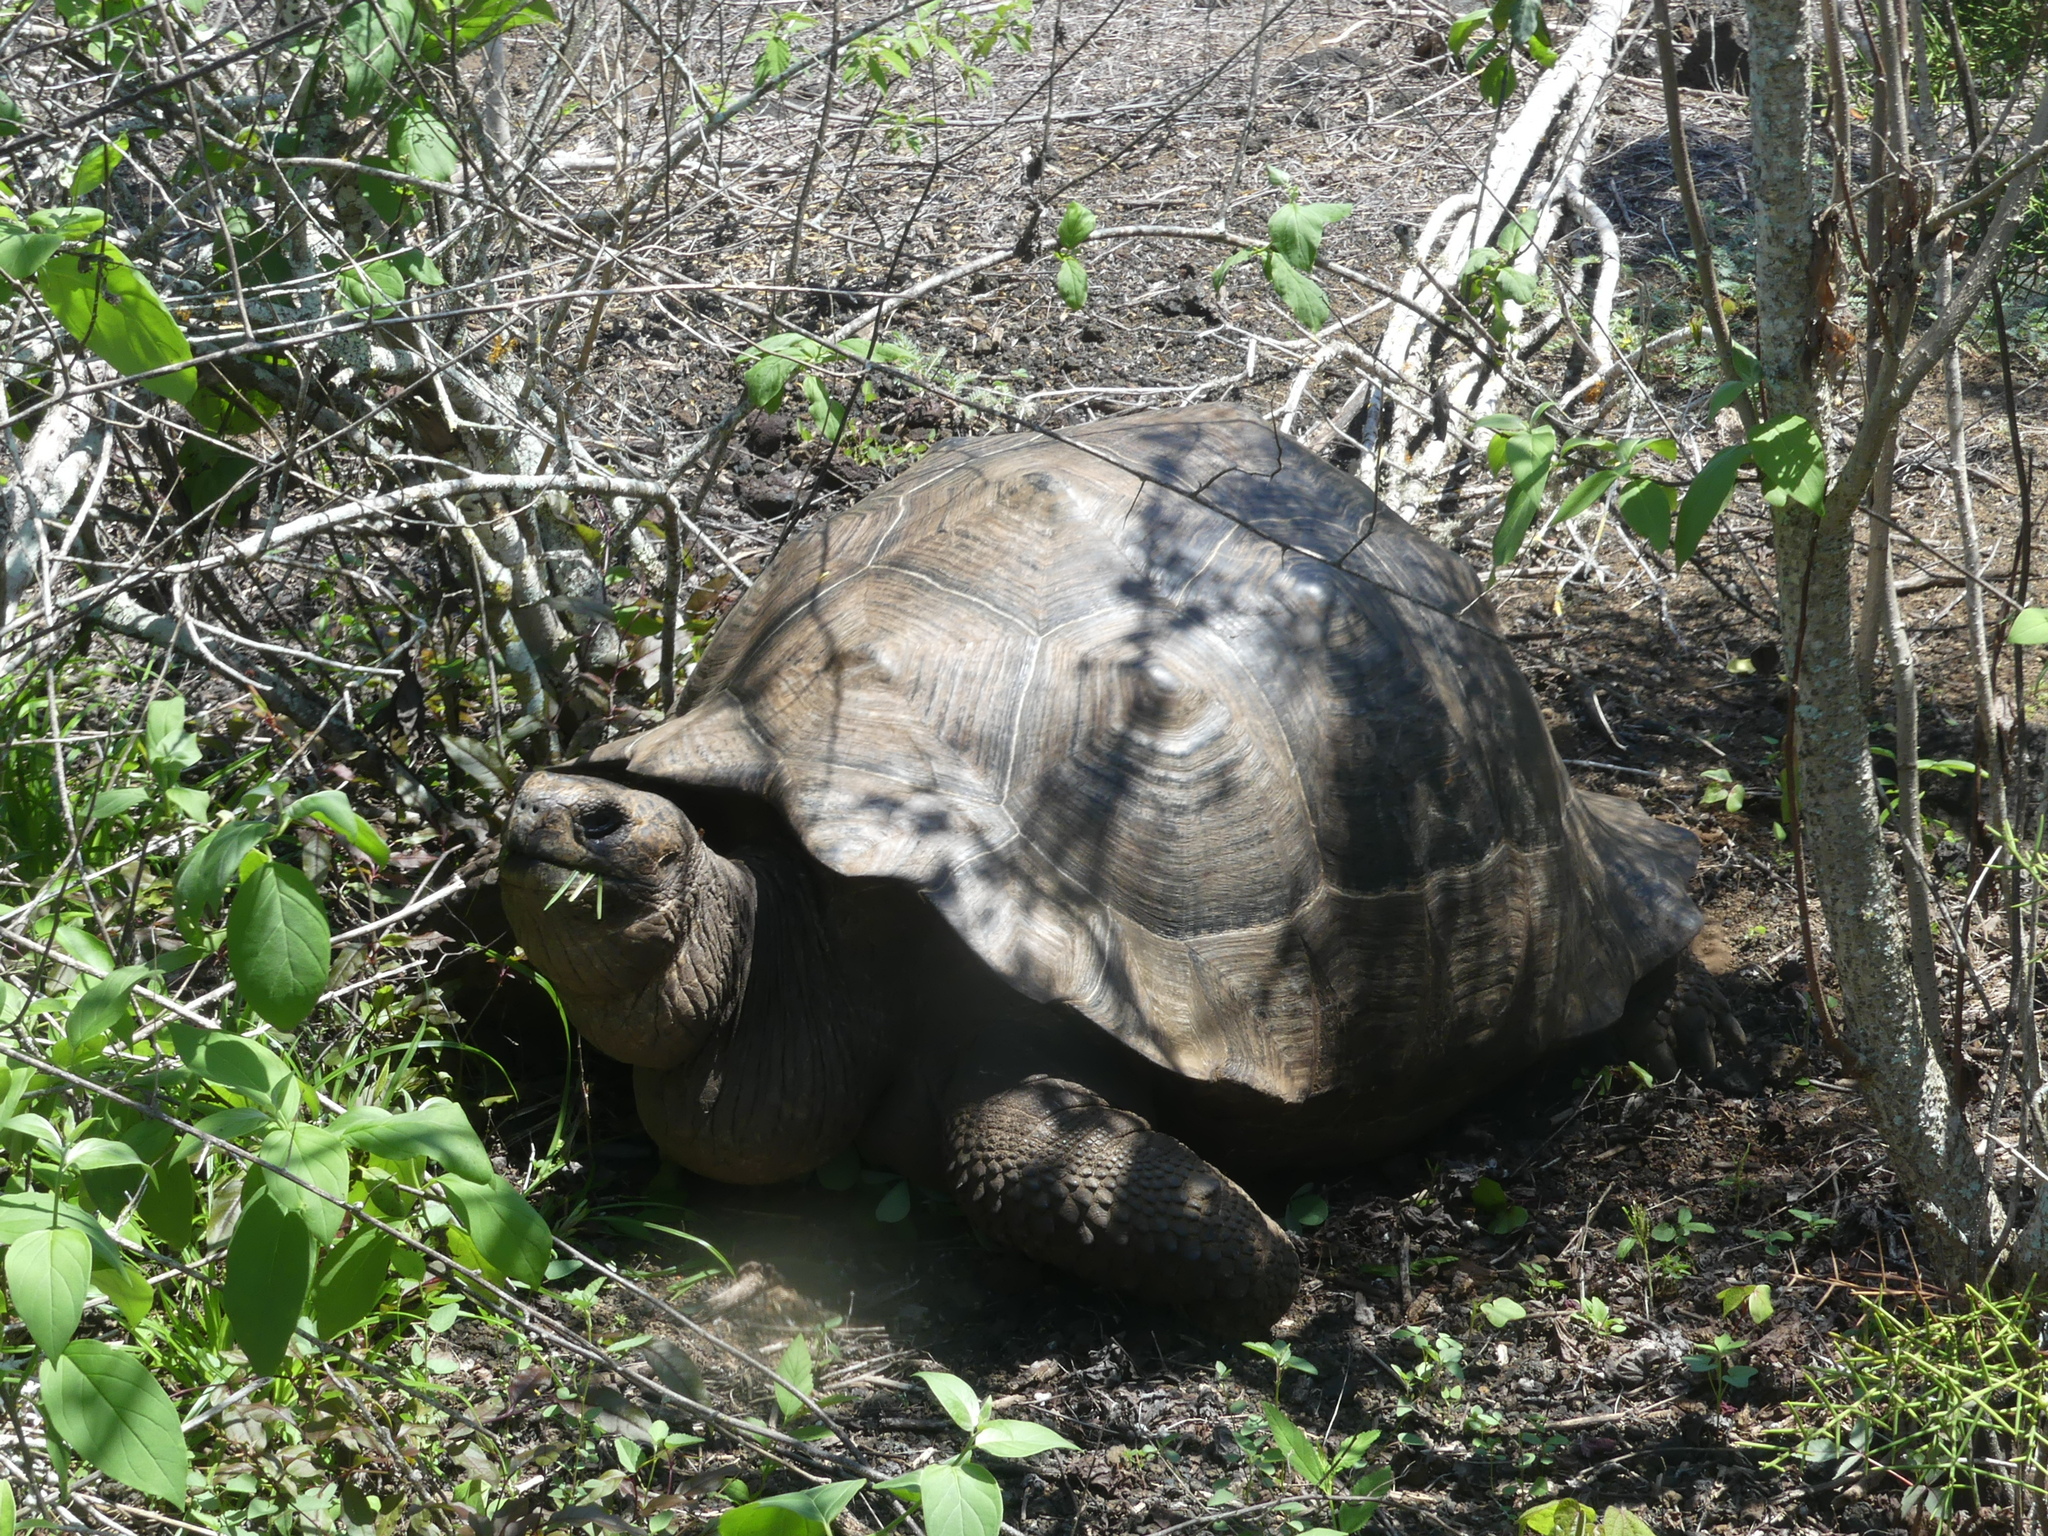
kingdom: Animalia
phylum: Chordata
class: Testudines
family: Testudinidae
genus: Chelonoidis
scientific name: Chelonoidis guntheri
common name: Sierra negra giant tortoise
